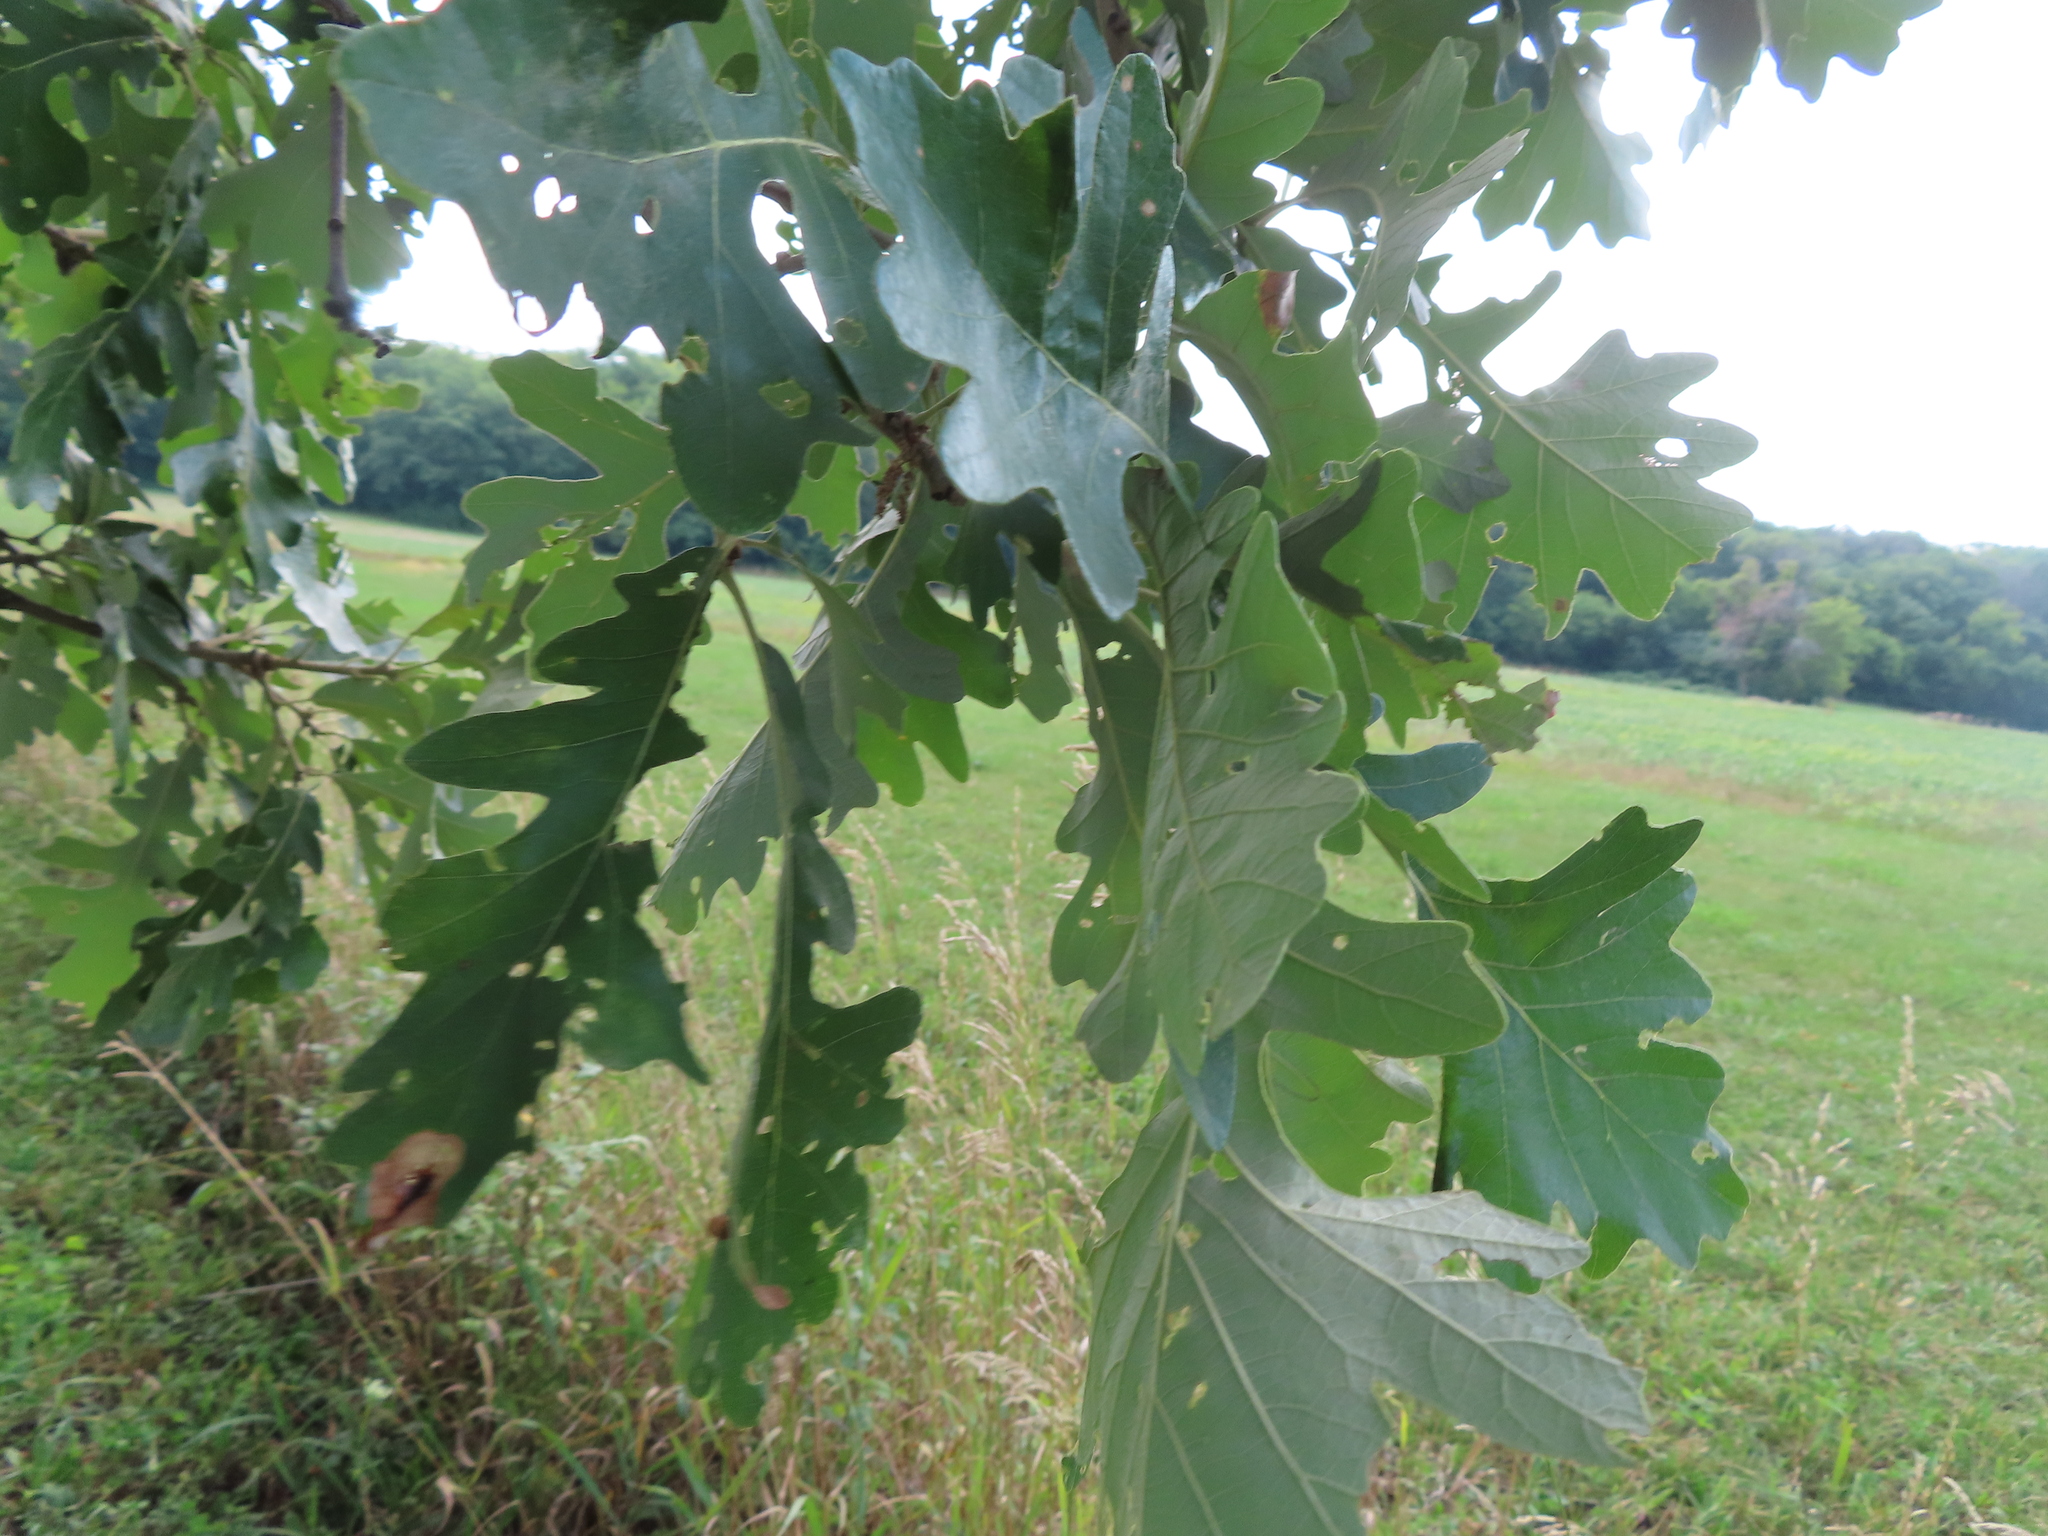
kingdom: Plantae
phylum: Tracheophyta
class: Magnoliopsida
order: Fagales
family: Fagaceae
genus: Quercus
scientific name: Quercus macrocarpa
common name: Bur oak
